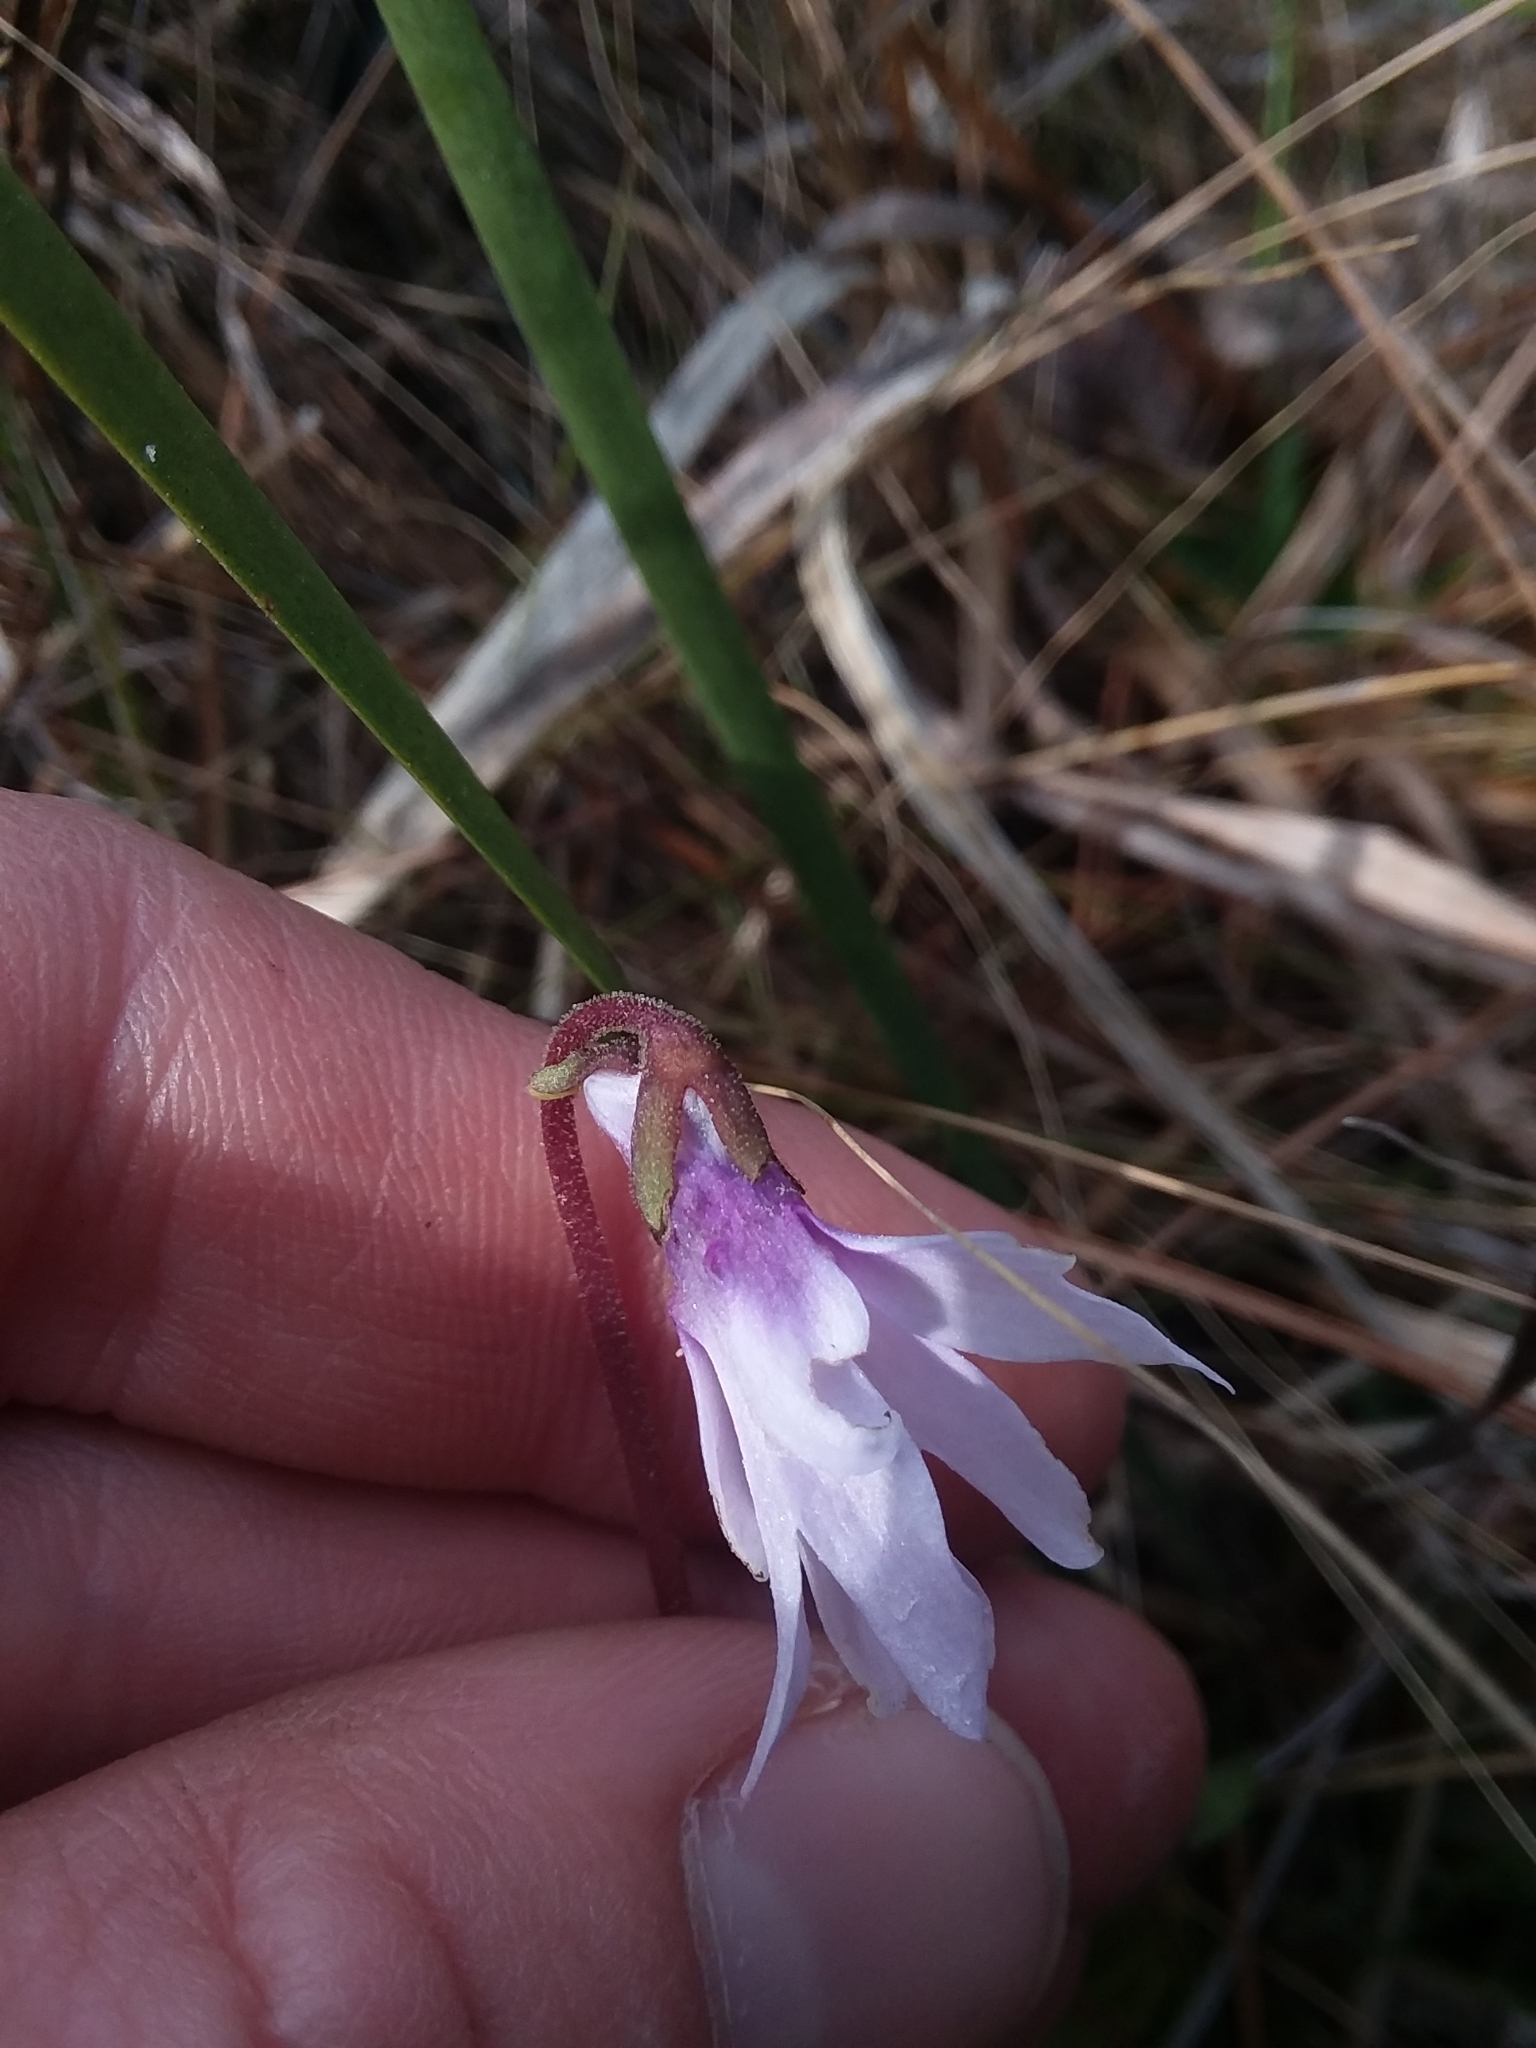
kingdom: Plantae
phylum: Tracheophyta
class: Magnoliopsida
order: Lamiales
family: Lentibulariaceae
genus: Pinguicula
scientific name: Pinguicula planifolia
